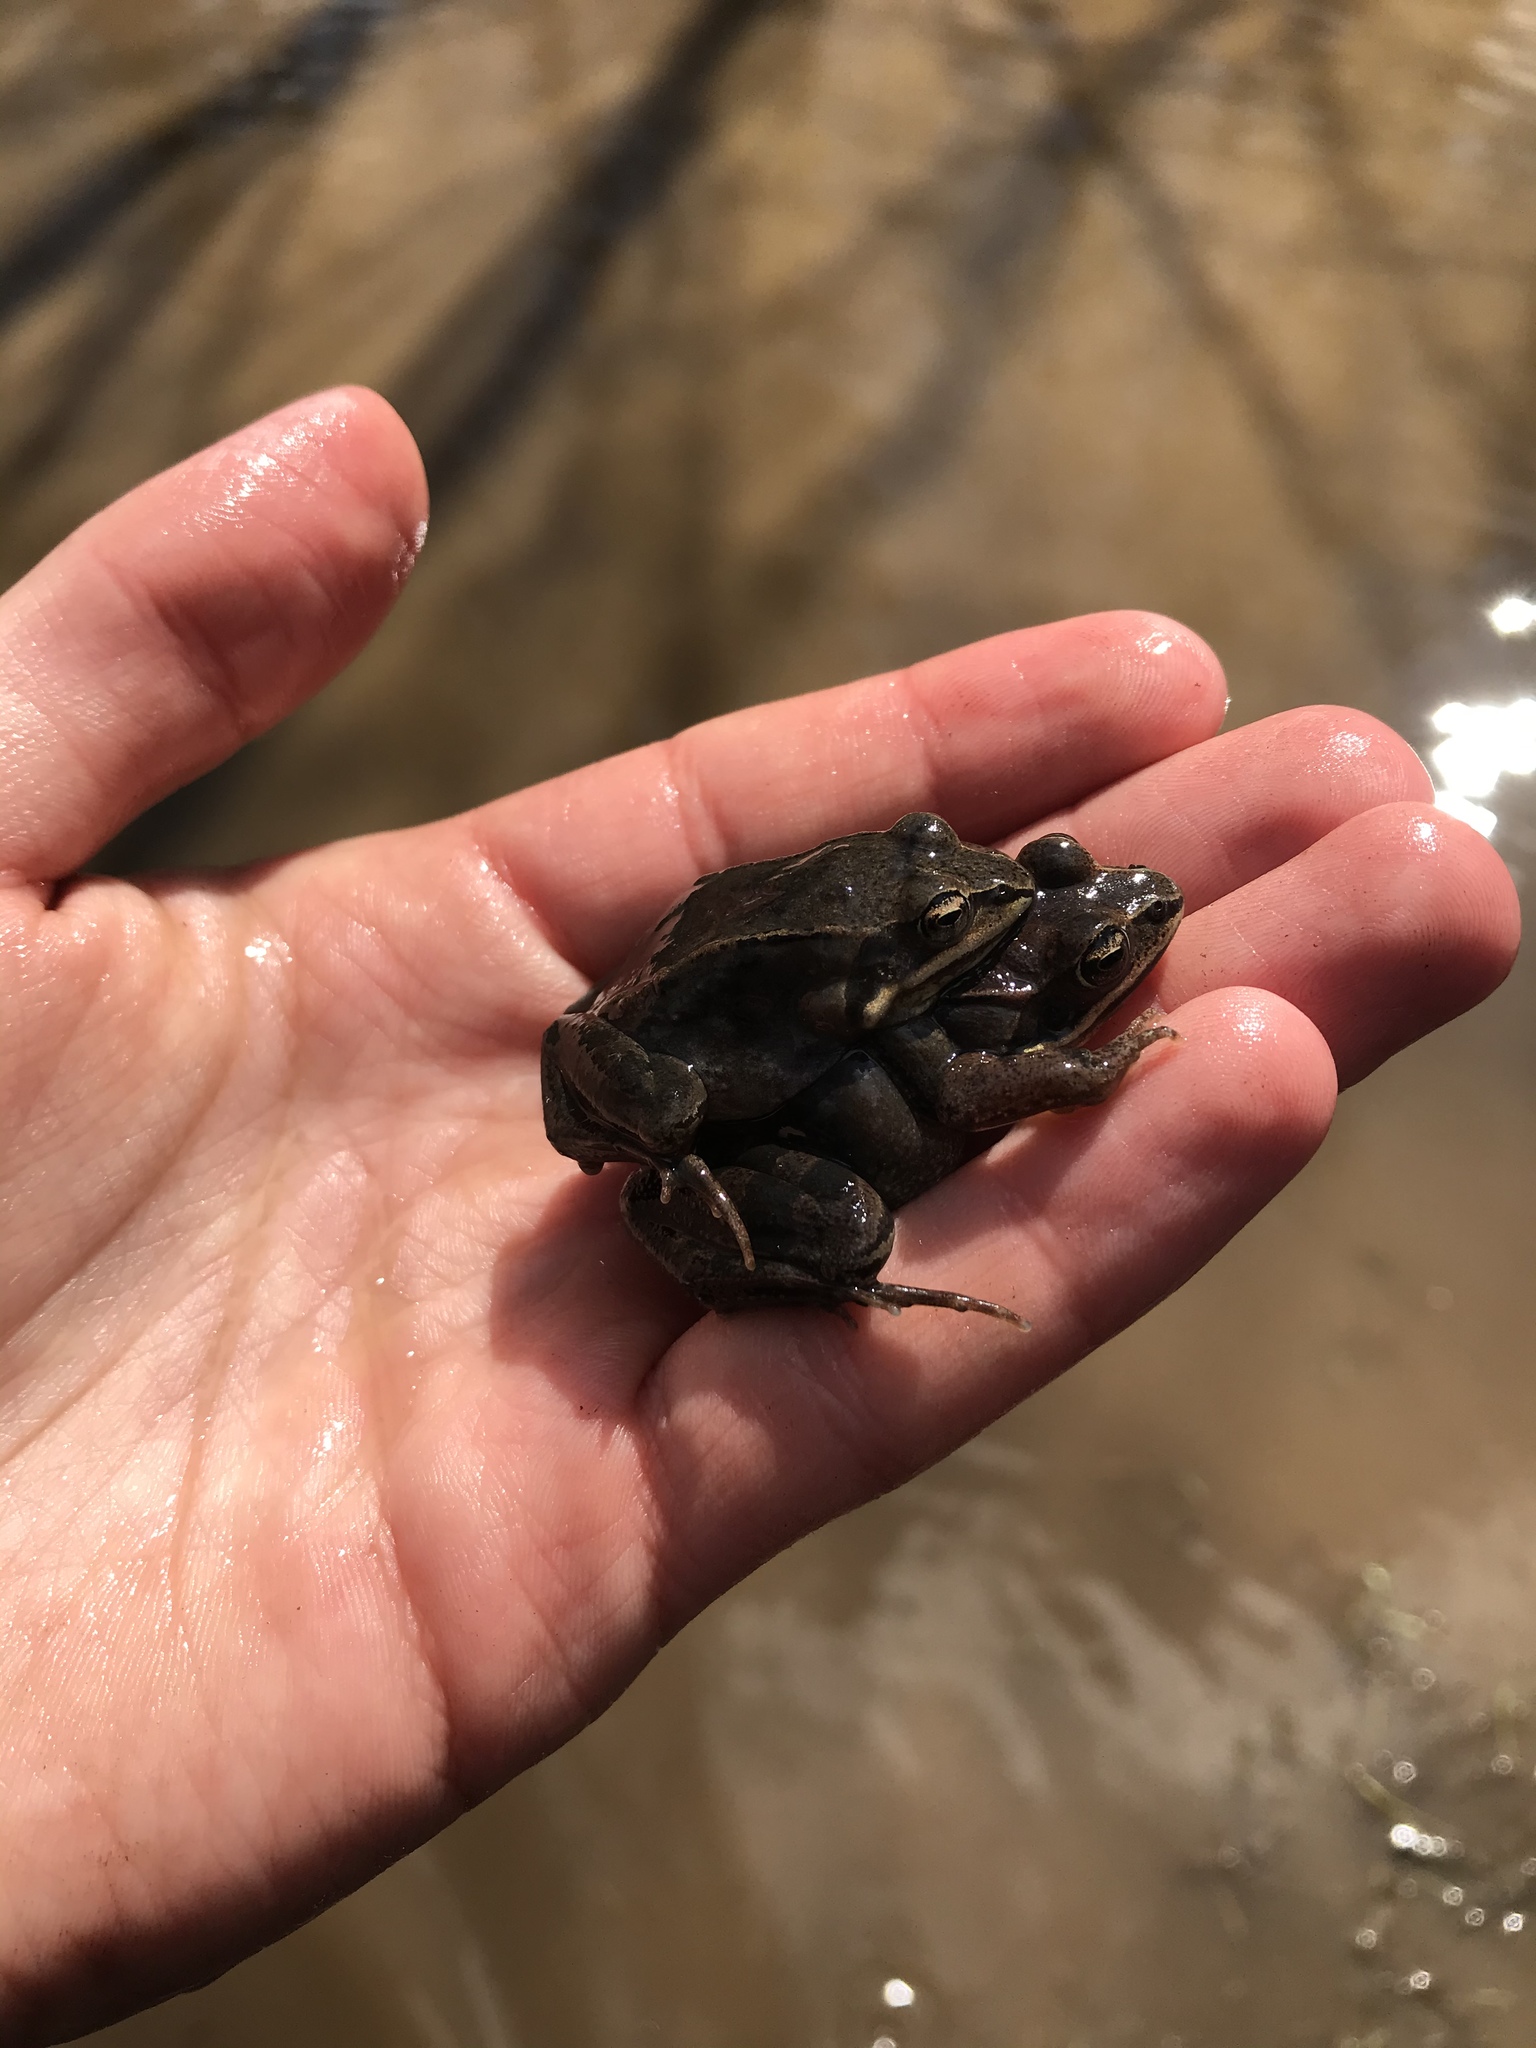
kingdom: Animalia
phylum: Chordata
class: Amphibia
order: Anura
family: Ranidae
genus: Lithobates
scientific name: Lithobates sylvaticus
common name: Wood frog
